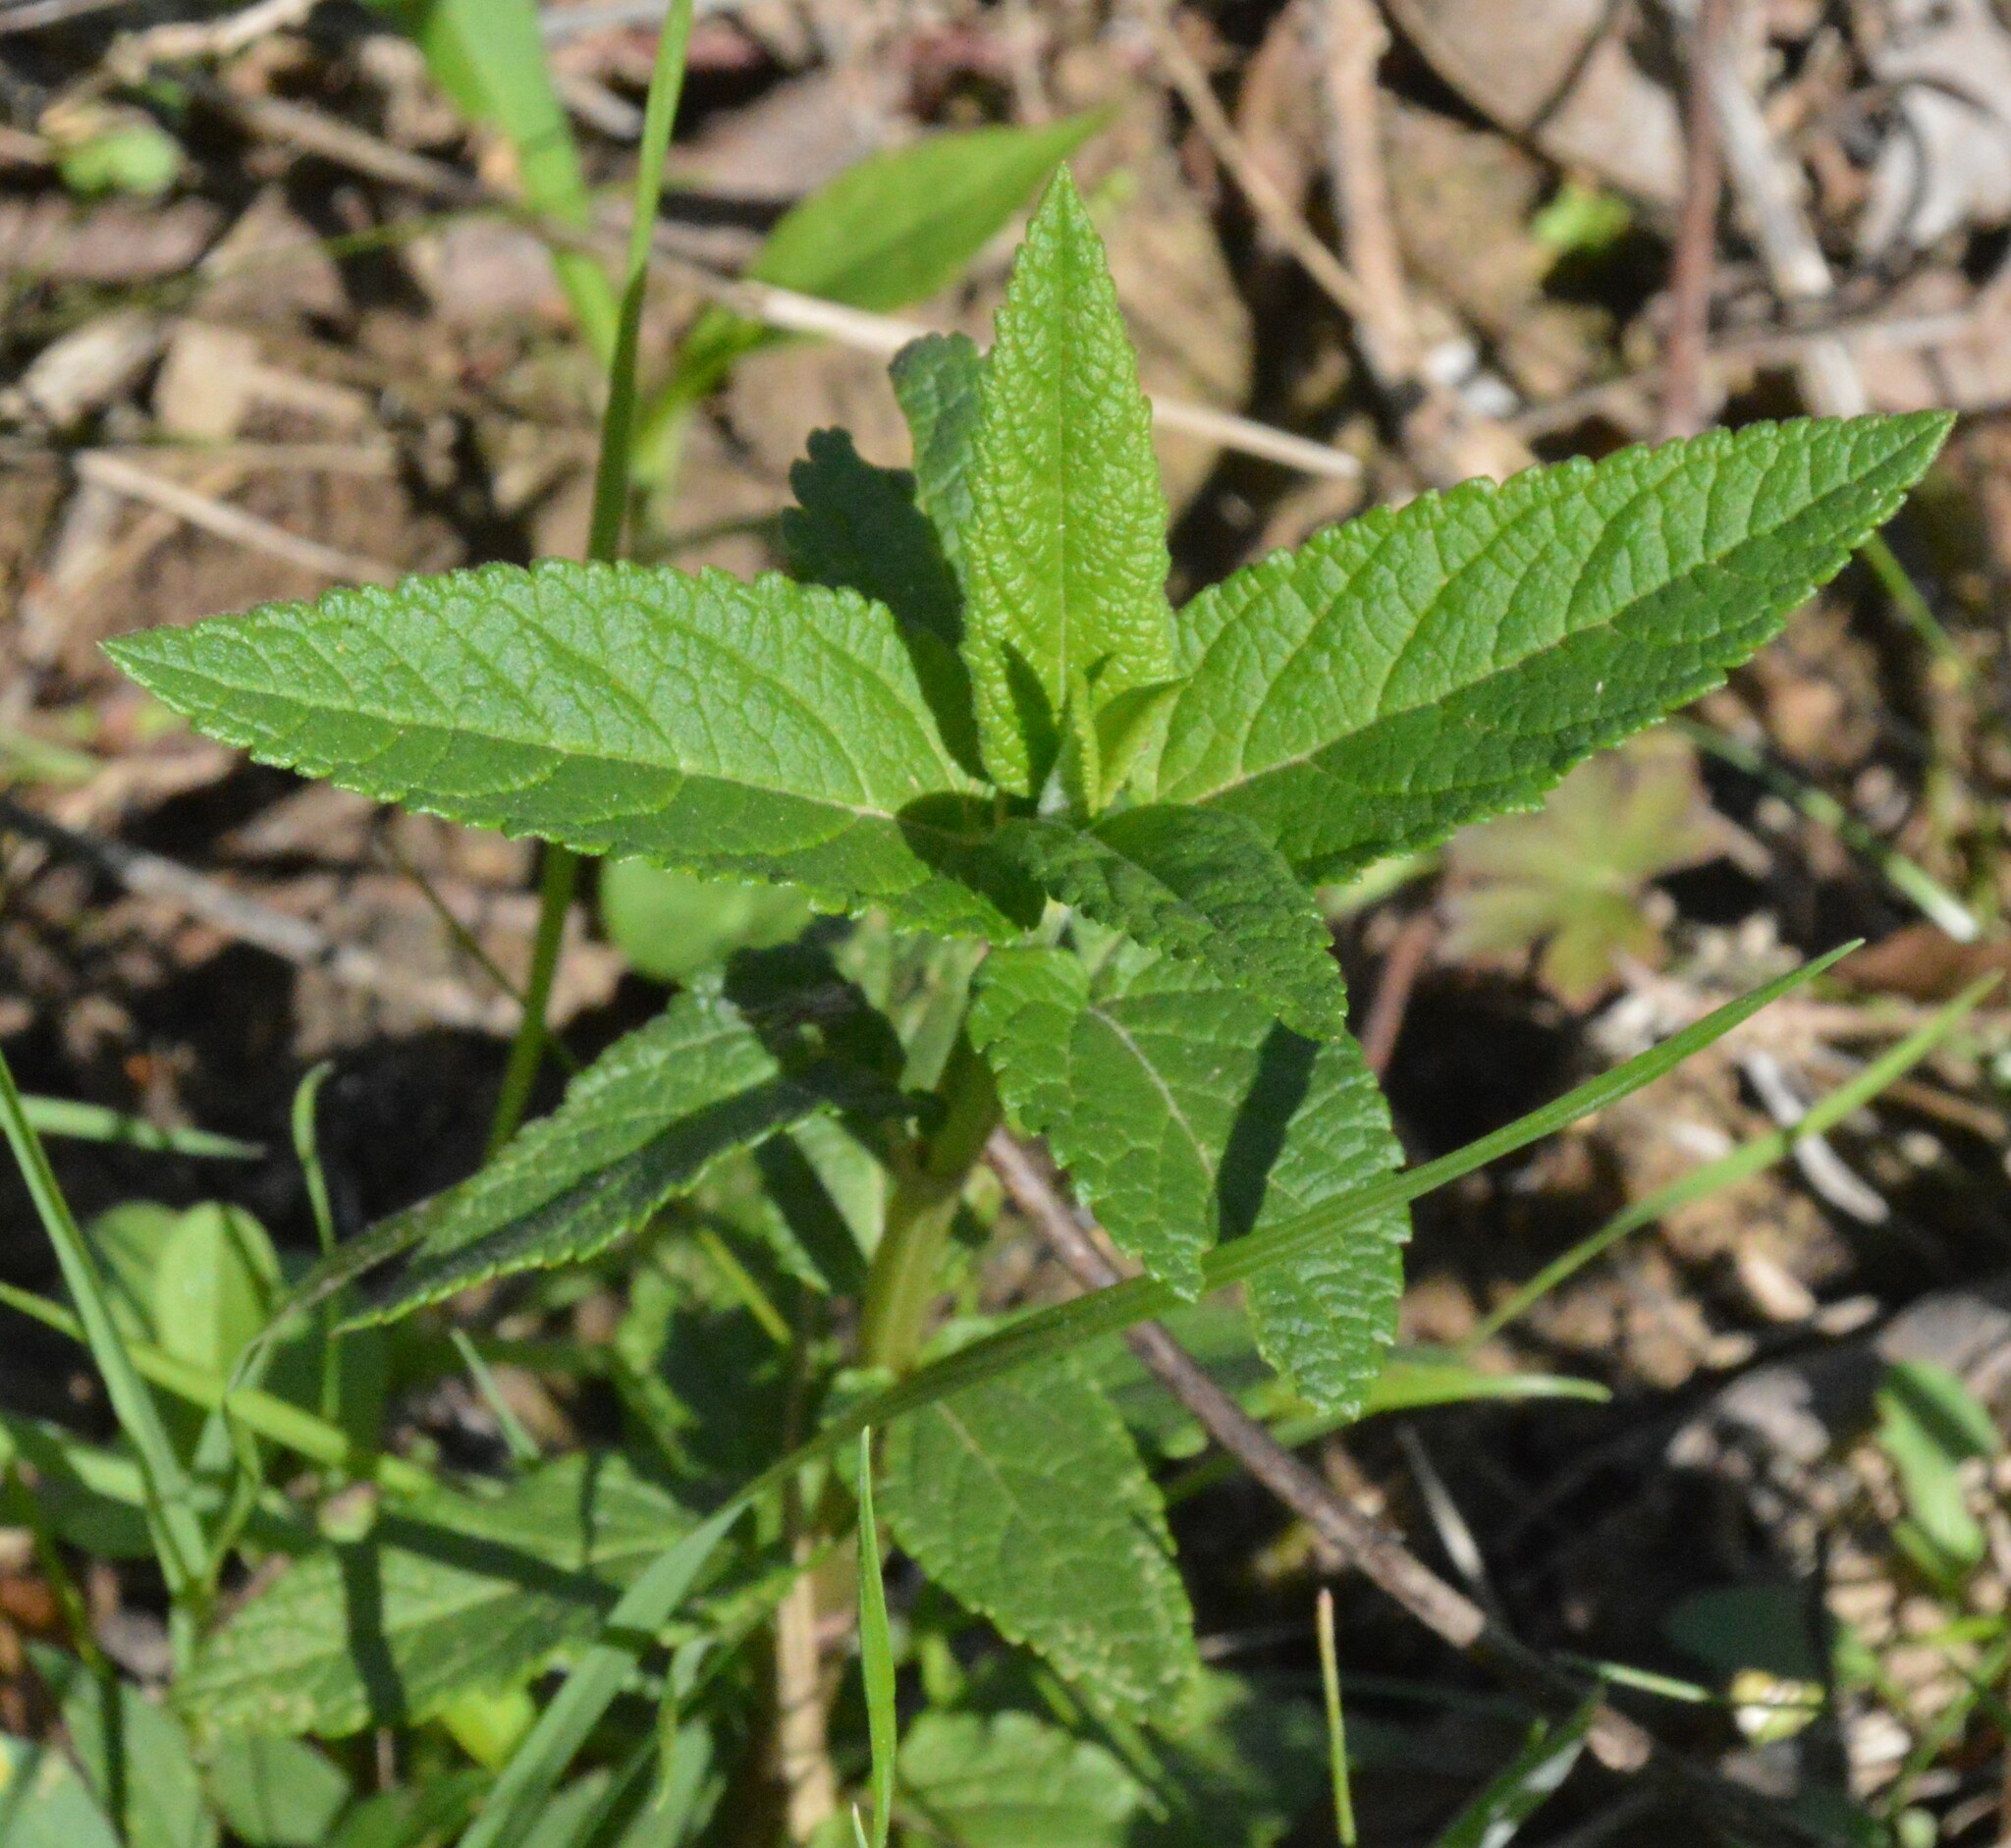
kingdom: Plantae
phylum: Tracheophyta
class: Magnoliopsida
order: Lamiales
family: Lamiaceae
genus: Teucrium
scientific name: Teucrium canadense
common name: American germander
